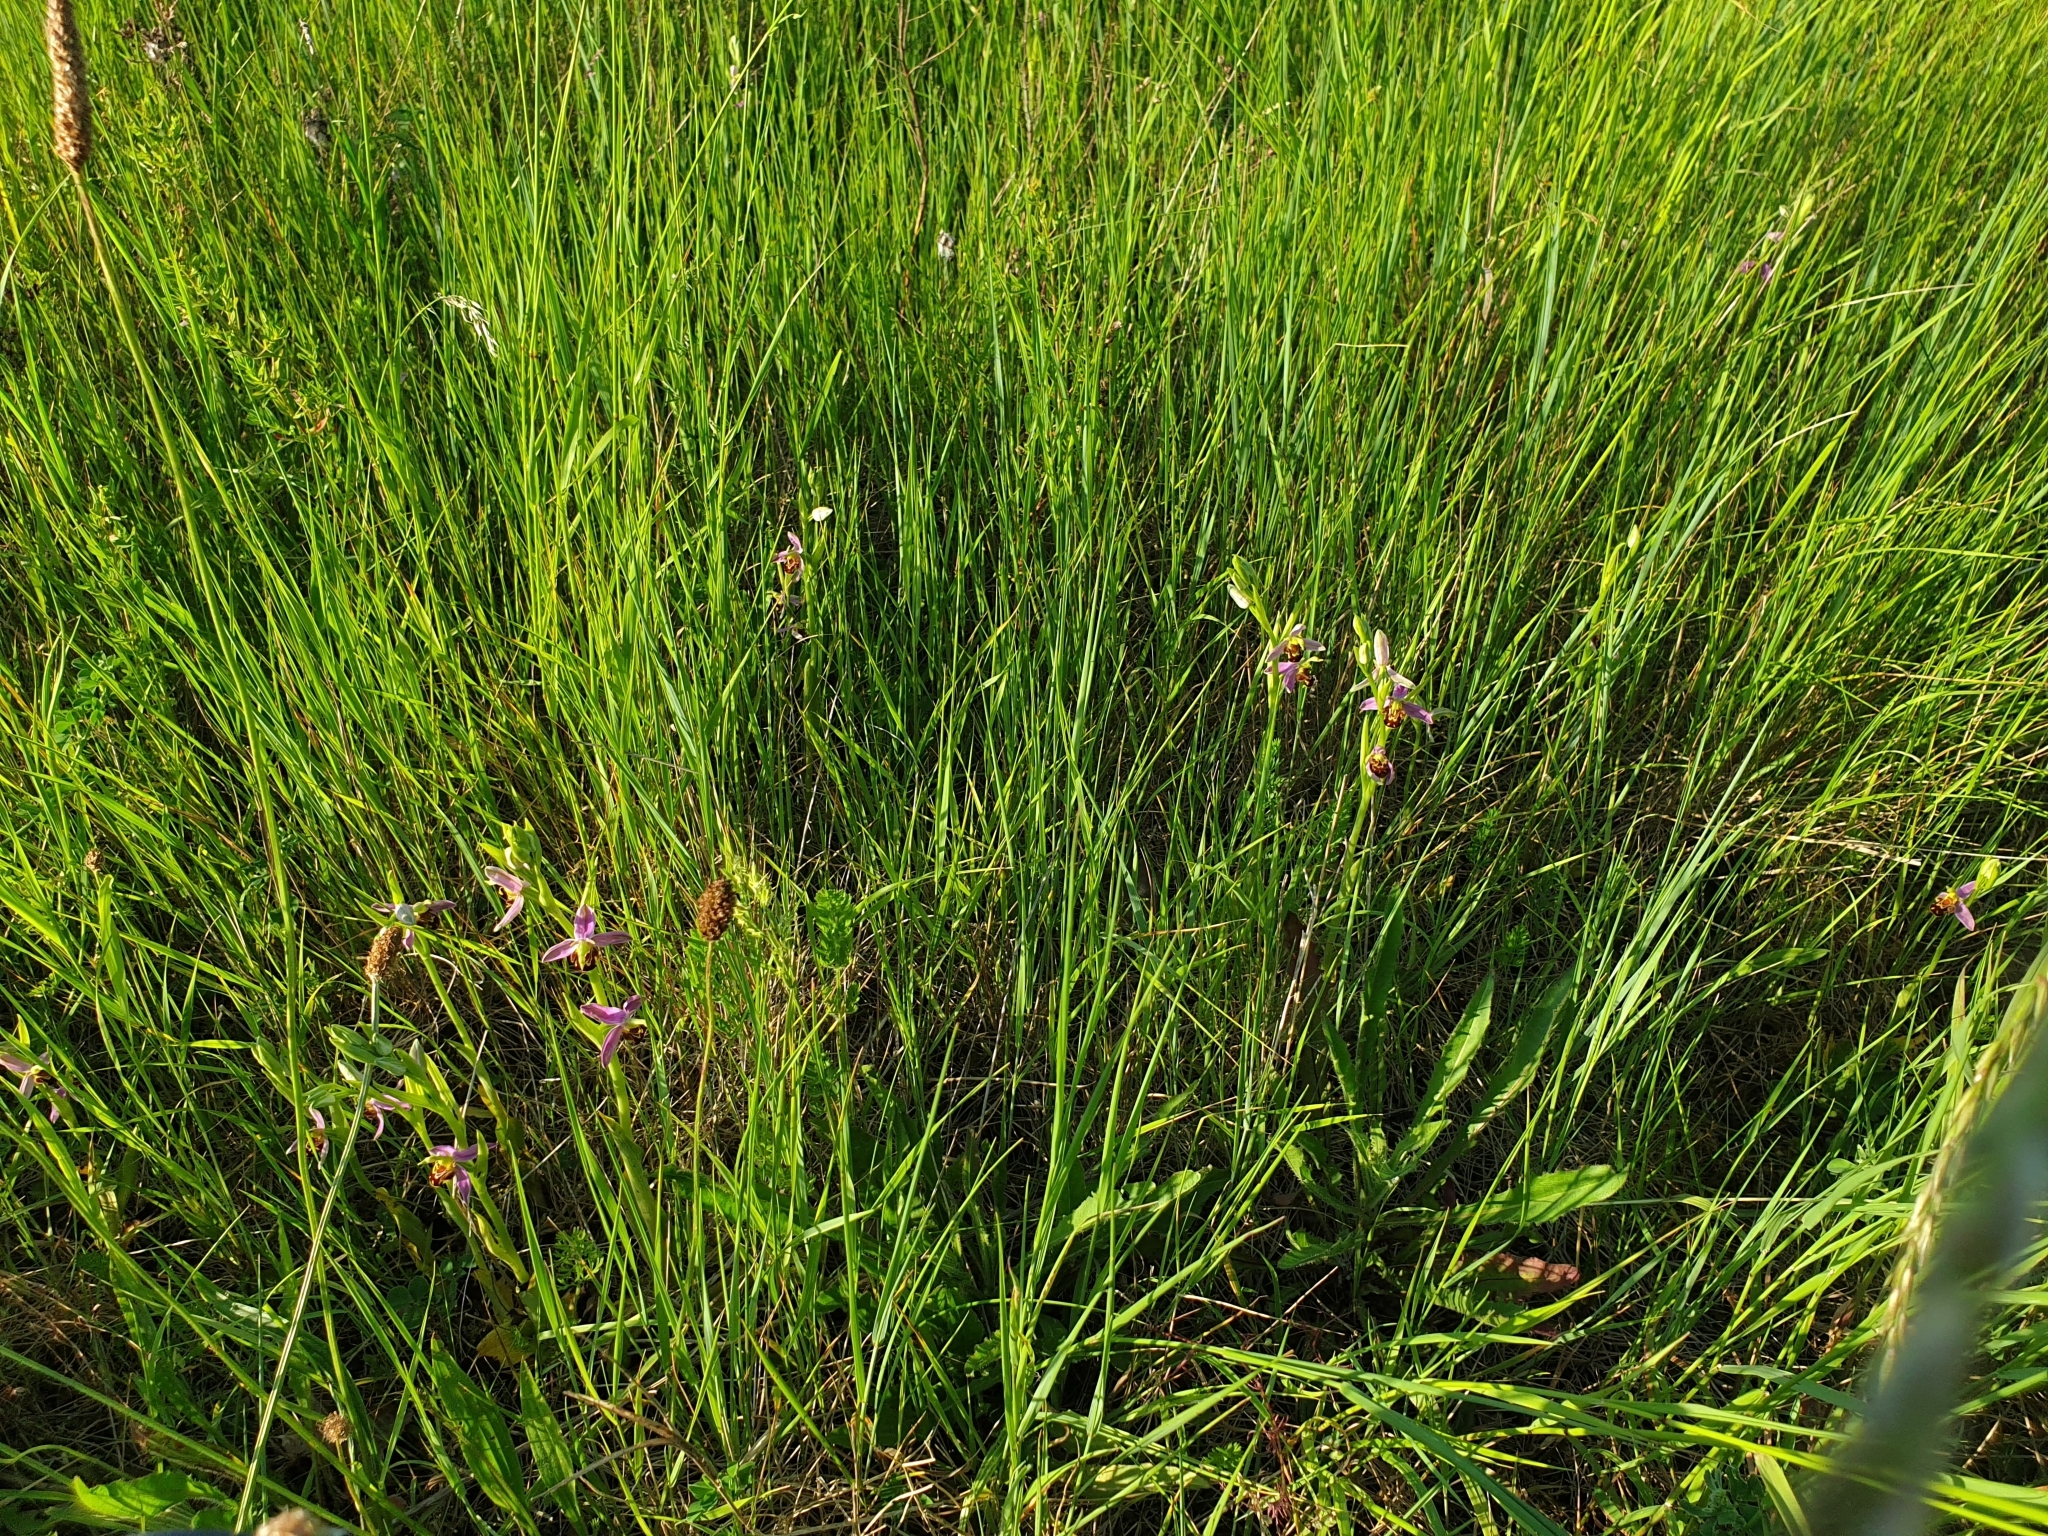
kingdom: Plantae
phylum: Tracheophyta
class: Liliopsida
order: Asparagales
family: Orchidaceae
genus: Ophrys
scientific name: Ophrys apifera
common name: Bee orchid
